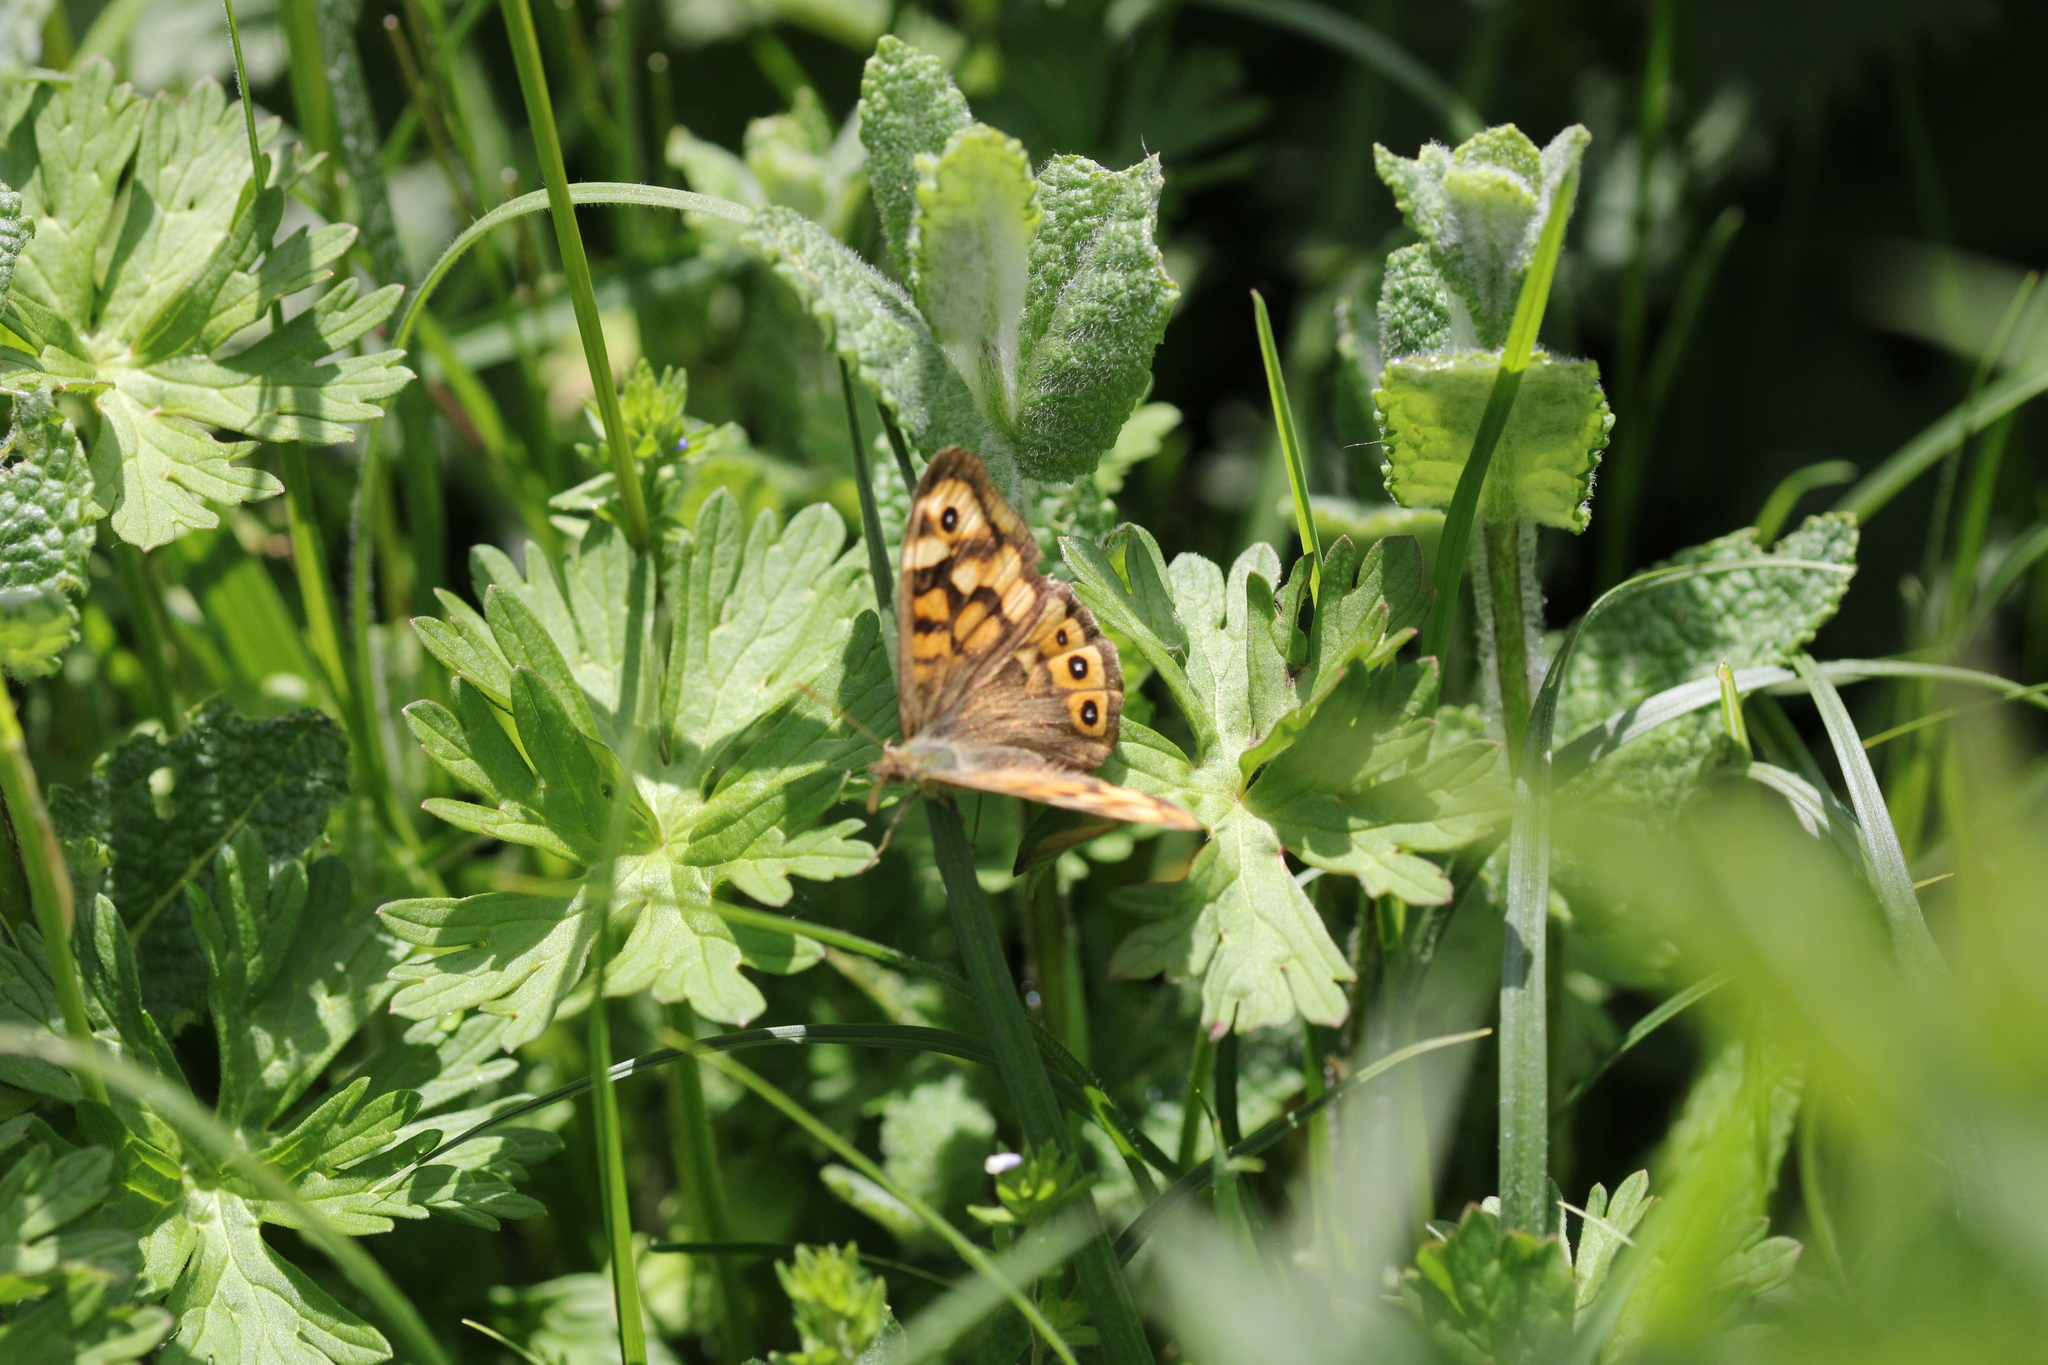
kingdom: Animalia
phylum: Arthropoda
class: Insecta
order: Lepidoptera
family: Nymphalidae
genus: Pararge
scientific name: Pararge aegeria
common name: Speckled wood
